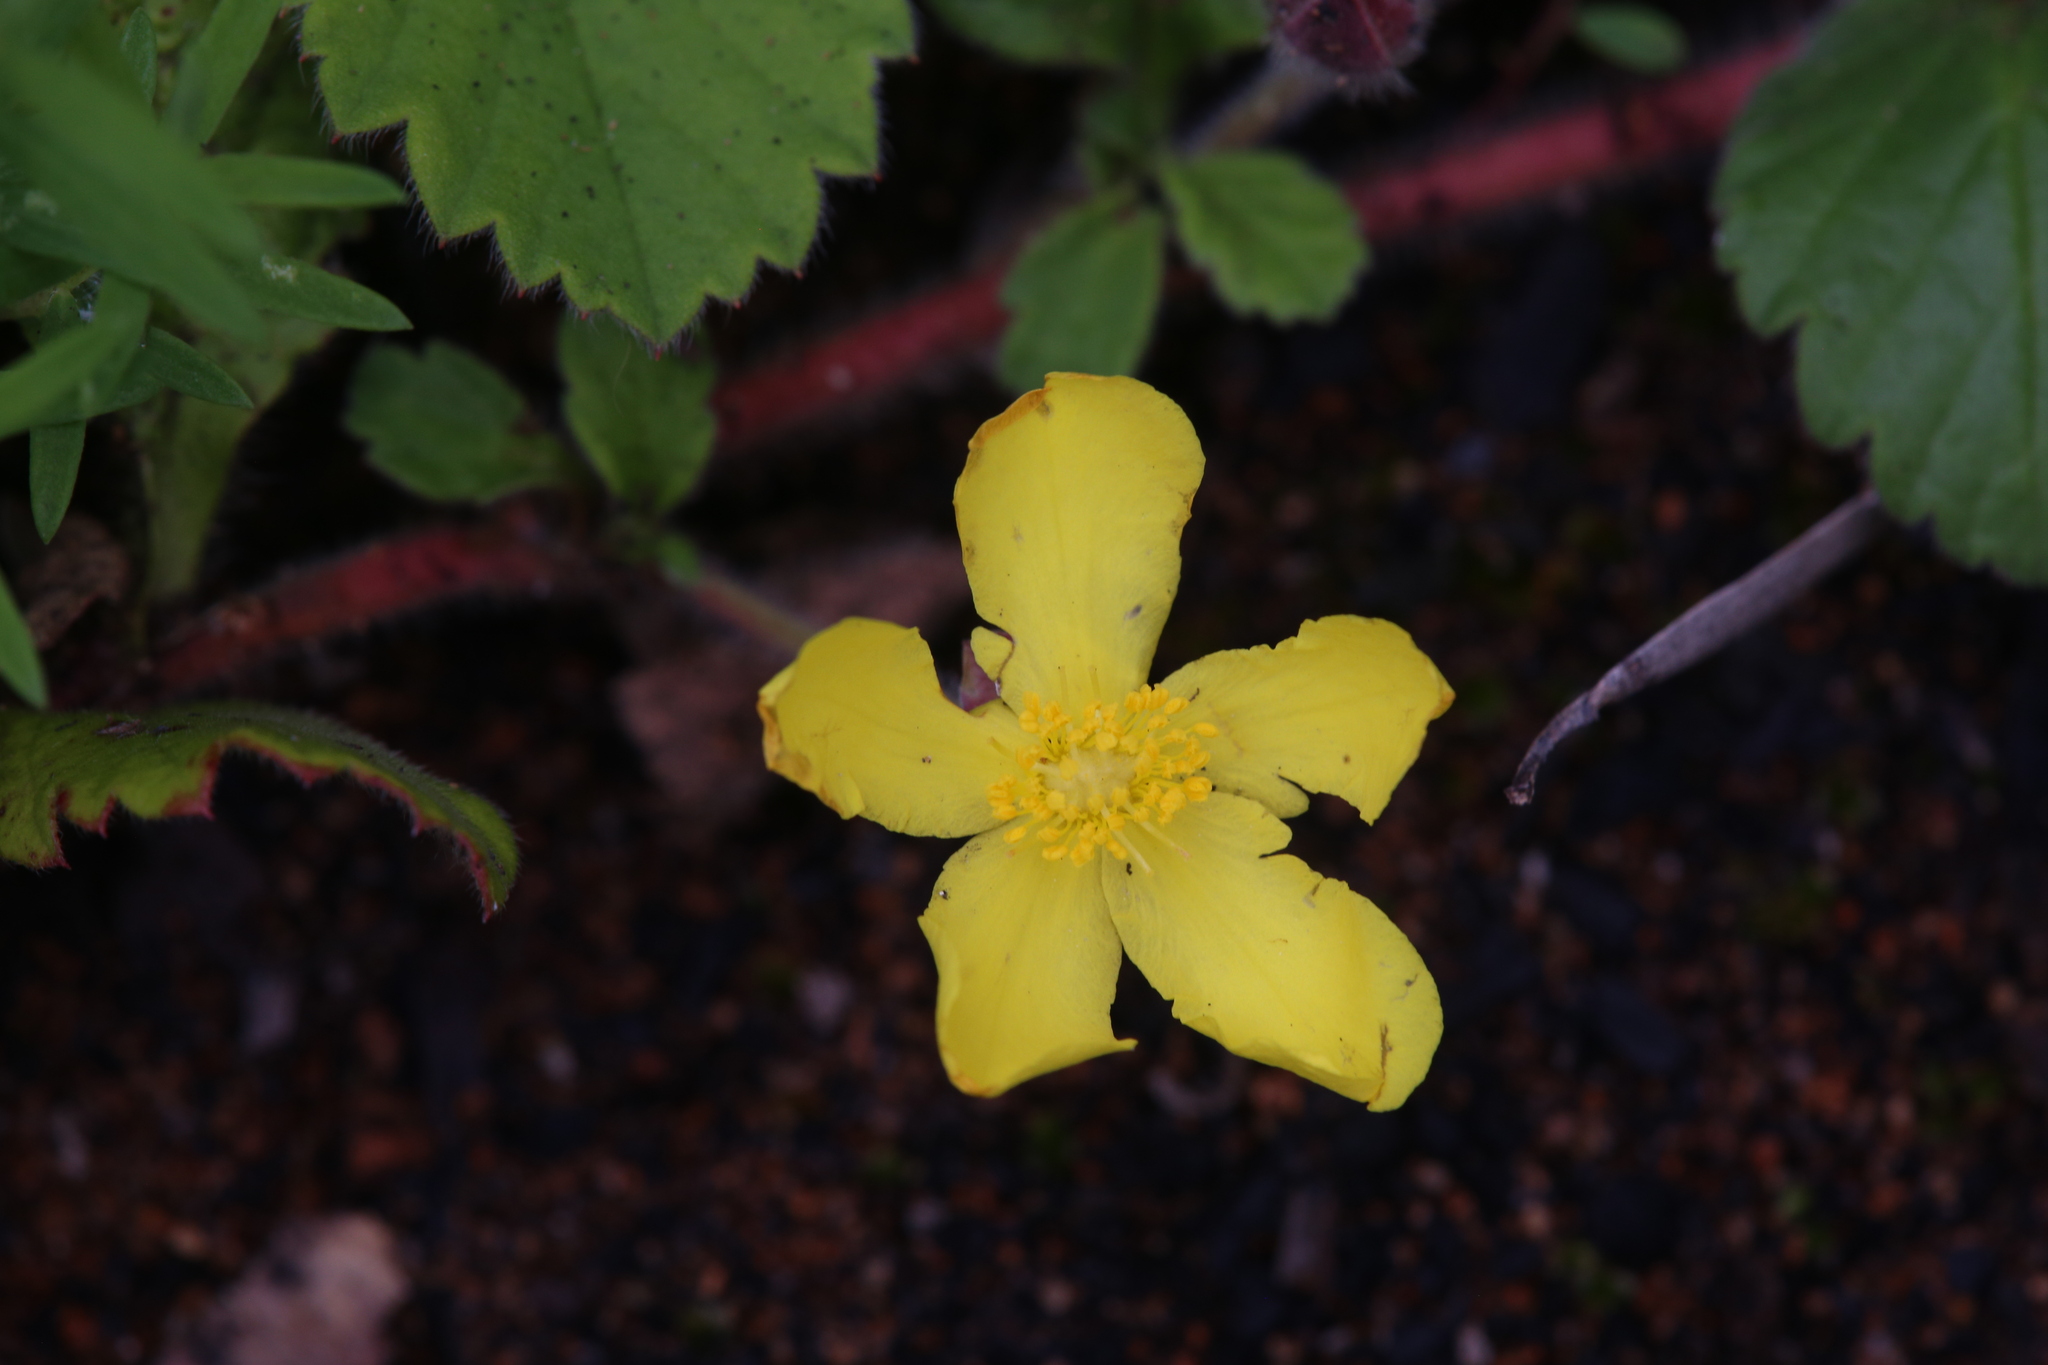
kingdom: Plantae
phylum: Tracheophyta
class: Magnoliopsida
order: Dilleniales
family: Dilleniaceae
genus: Hibbertia
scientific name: Hibbertia grossulariifolia
